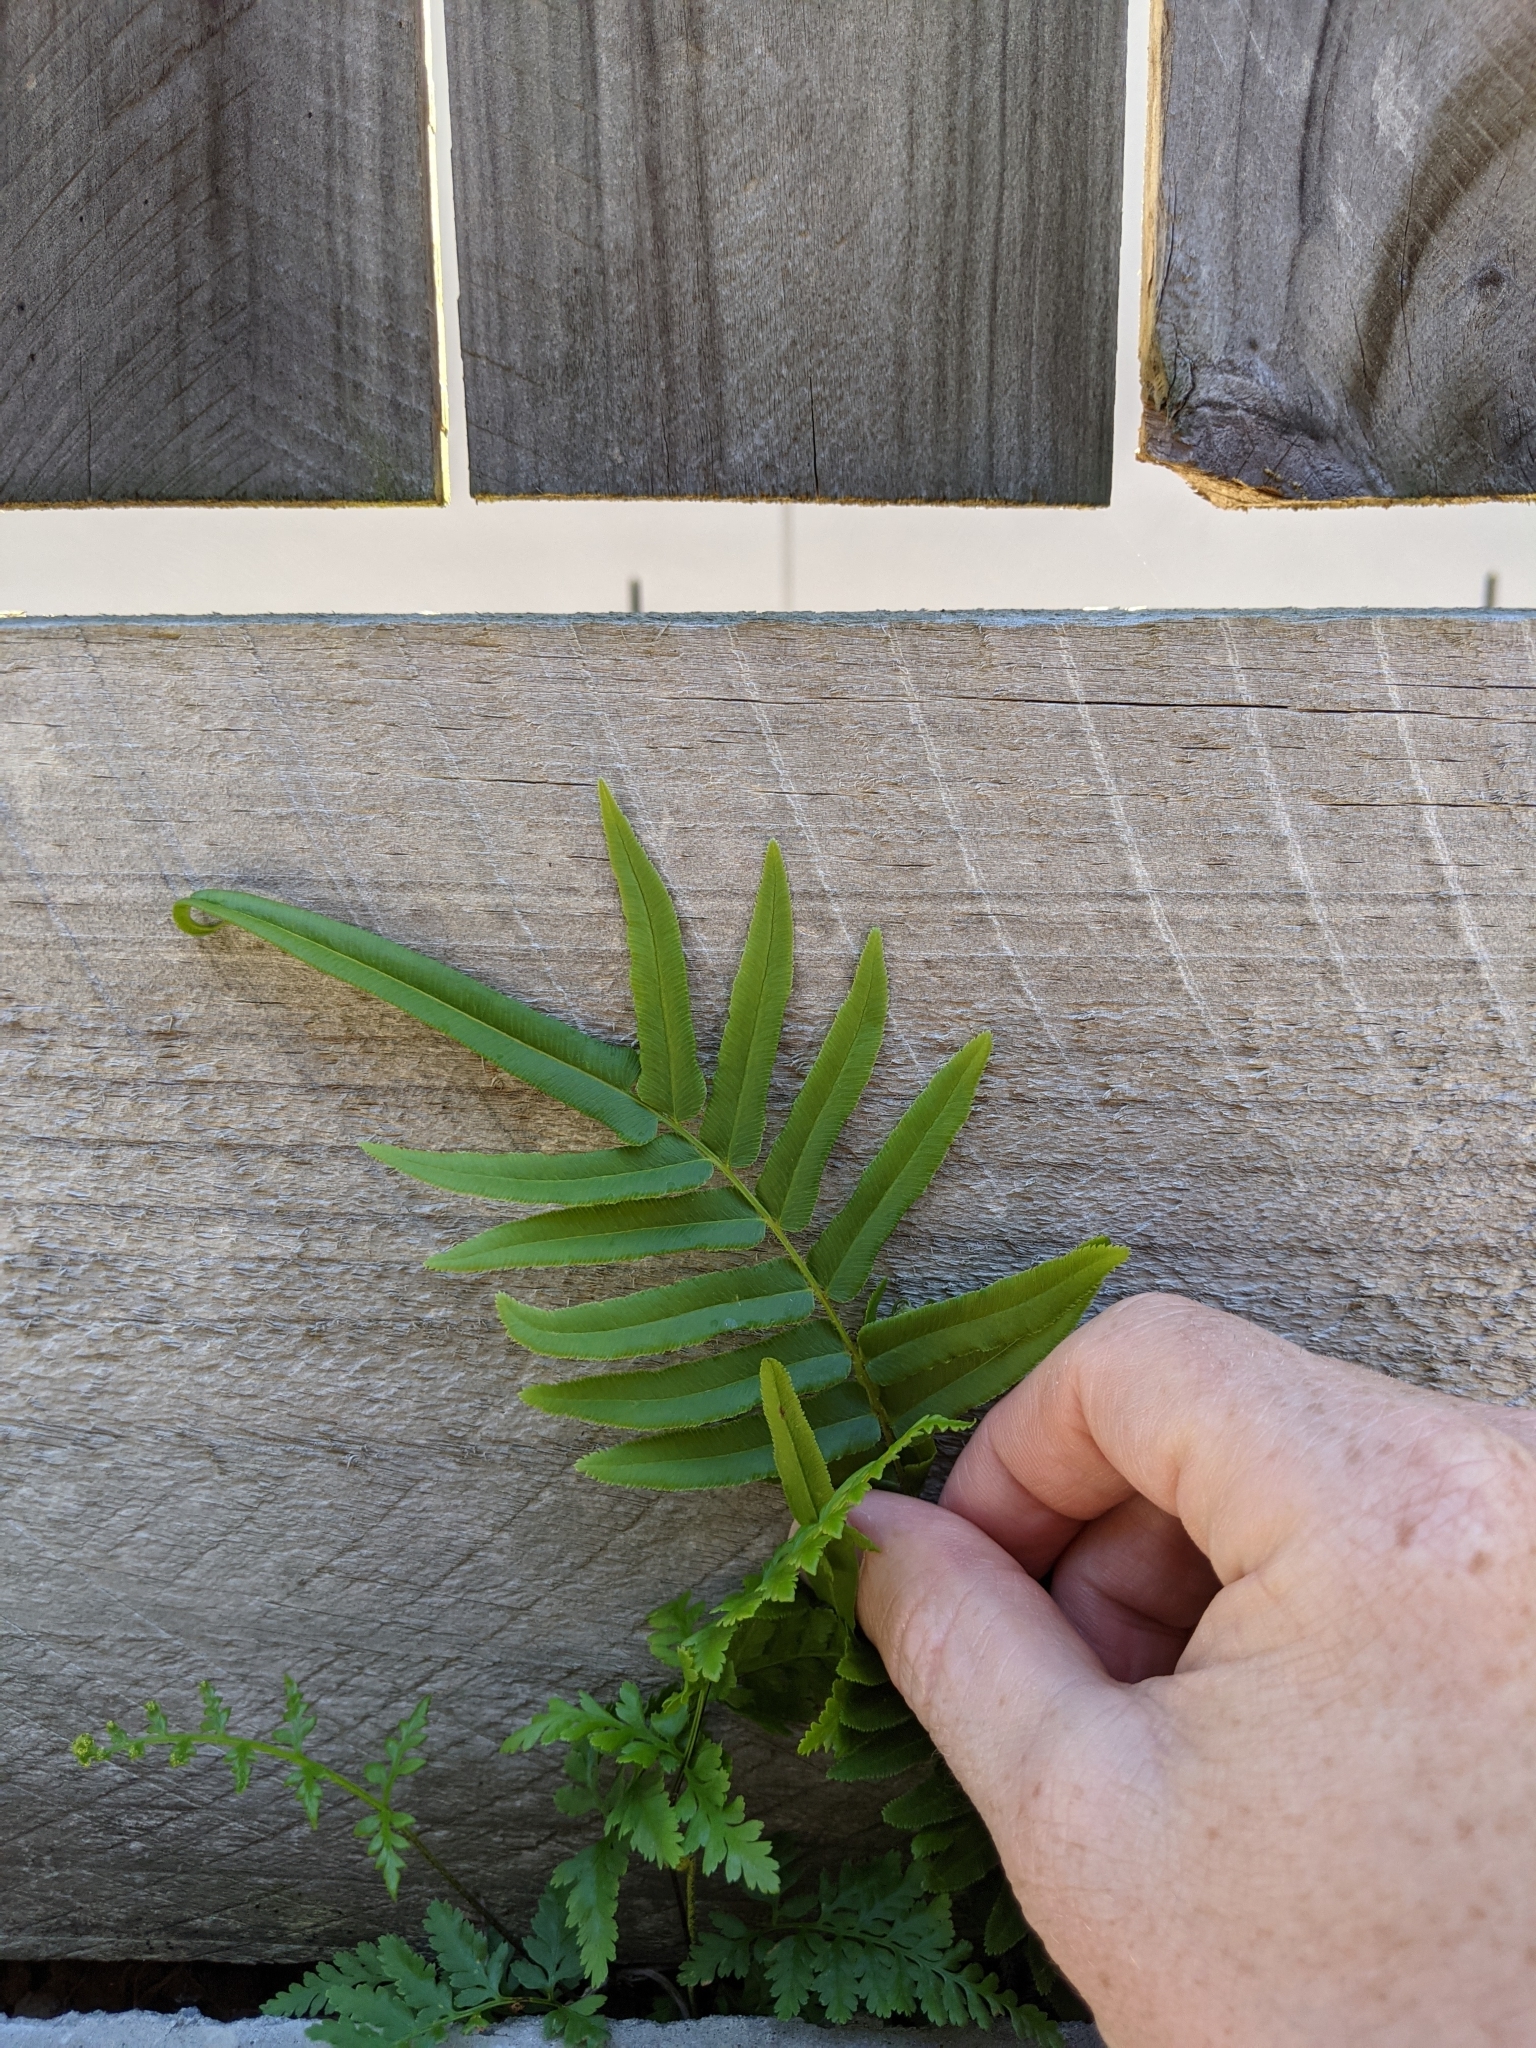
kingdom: Plantae
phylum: Tracheophyta
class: Polypodiopsida
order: Polypodiales
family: Pteridaceae
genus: Pteris
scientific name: Pteris vittata
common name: Ladder brake
